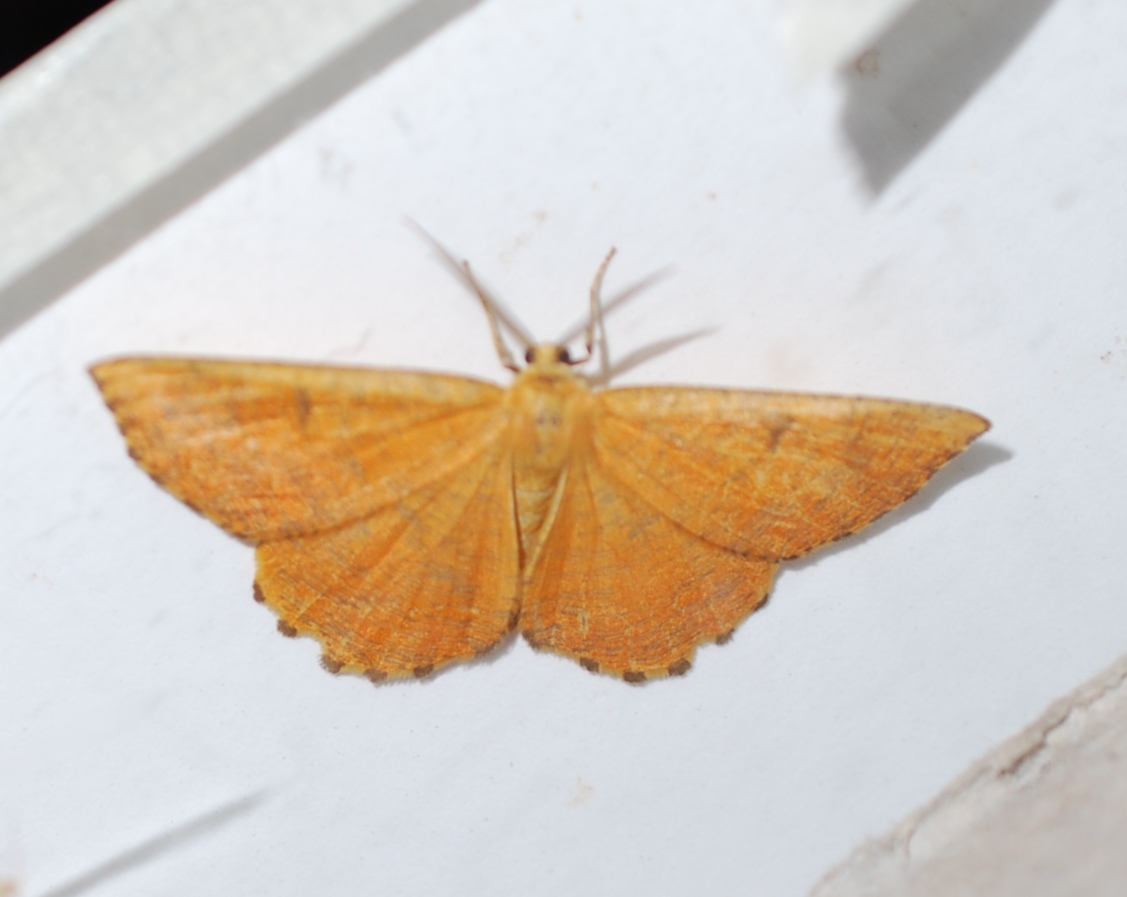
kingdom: Animalia
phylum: Arthropoda
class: Insecta
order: Lepidoptera
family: Geometridae
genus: Angerona
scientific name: Angerona prunaria
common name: Orange moth
